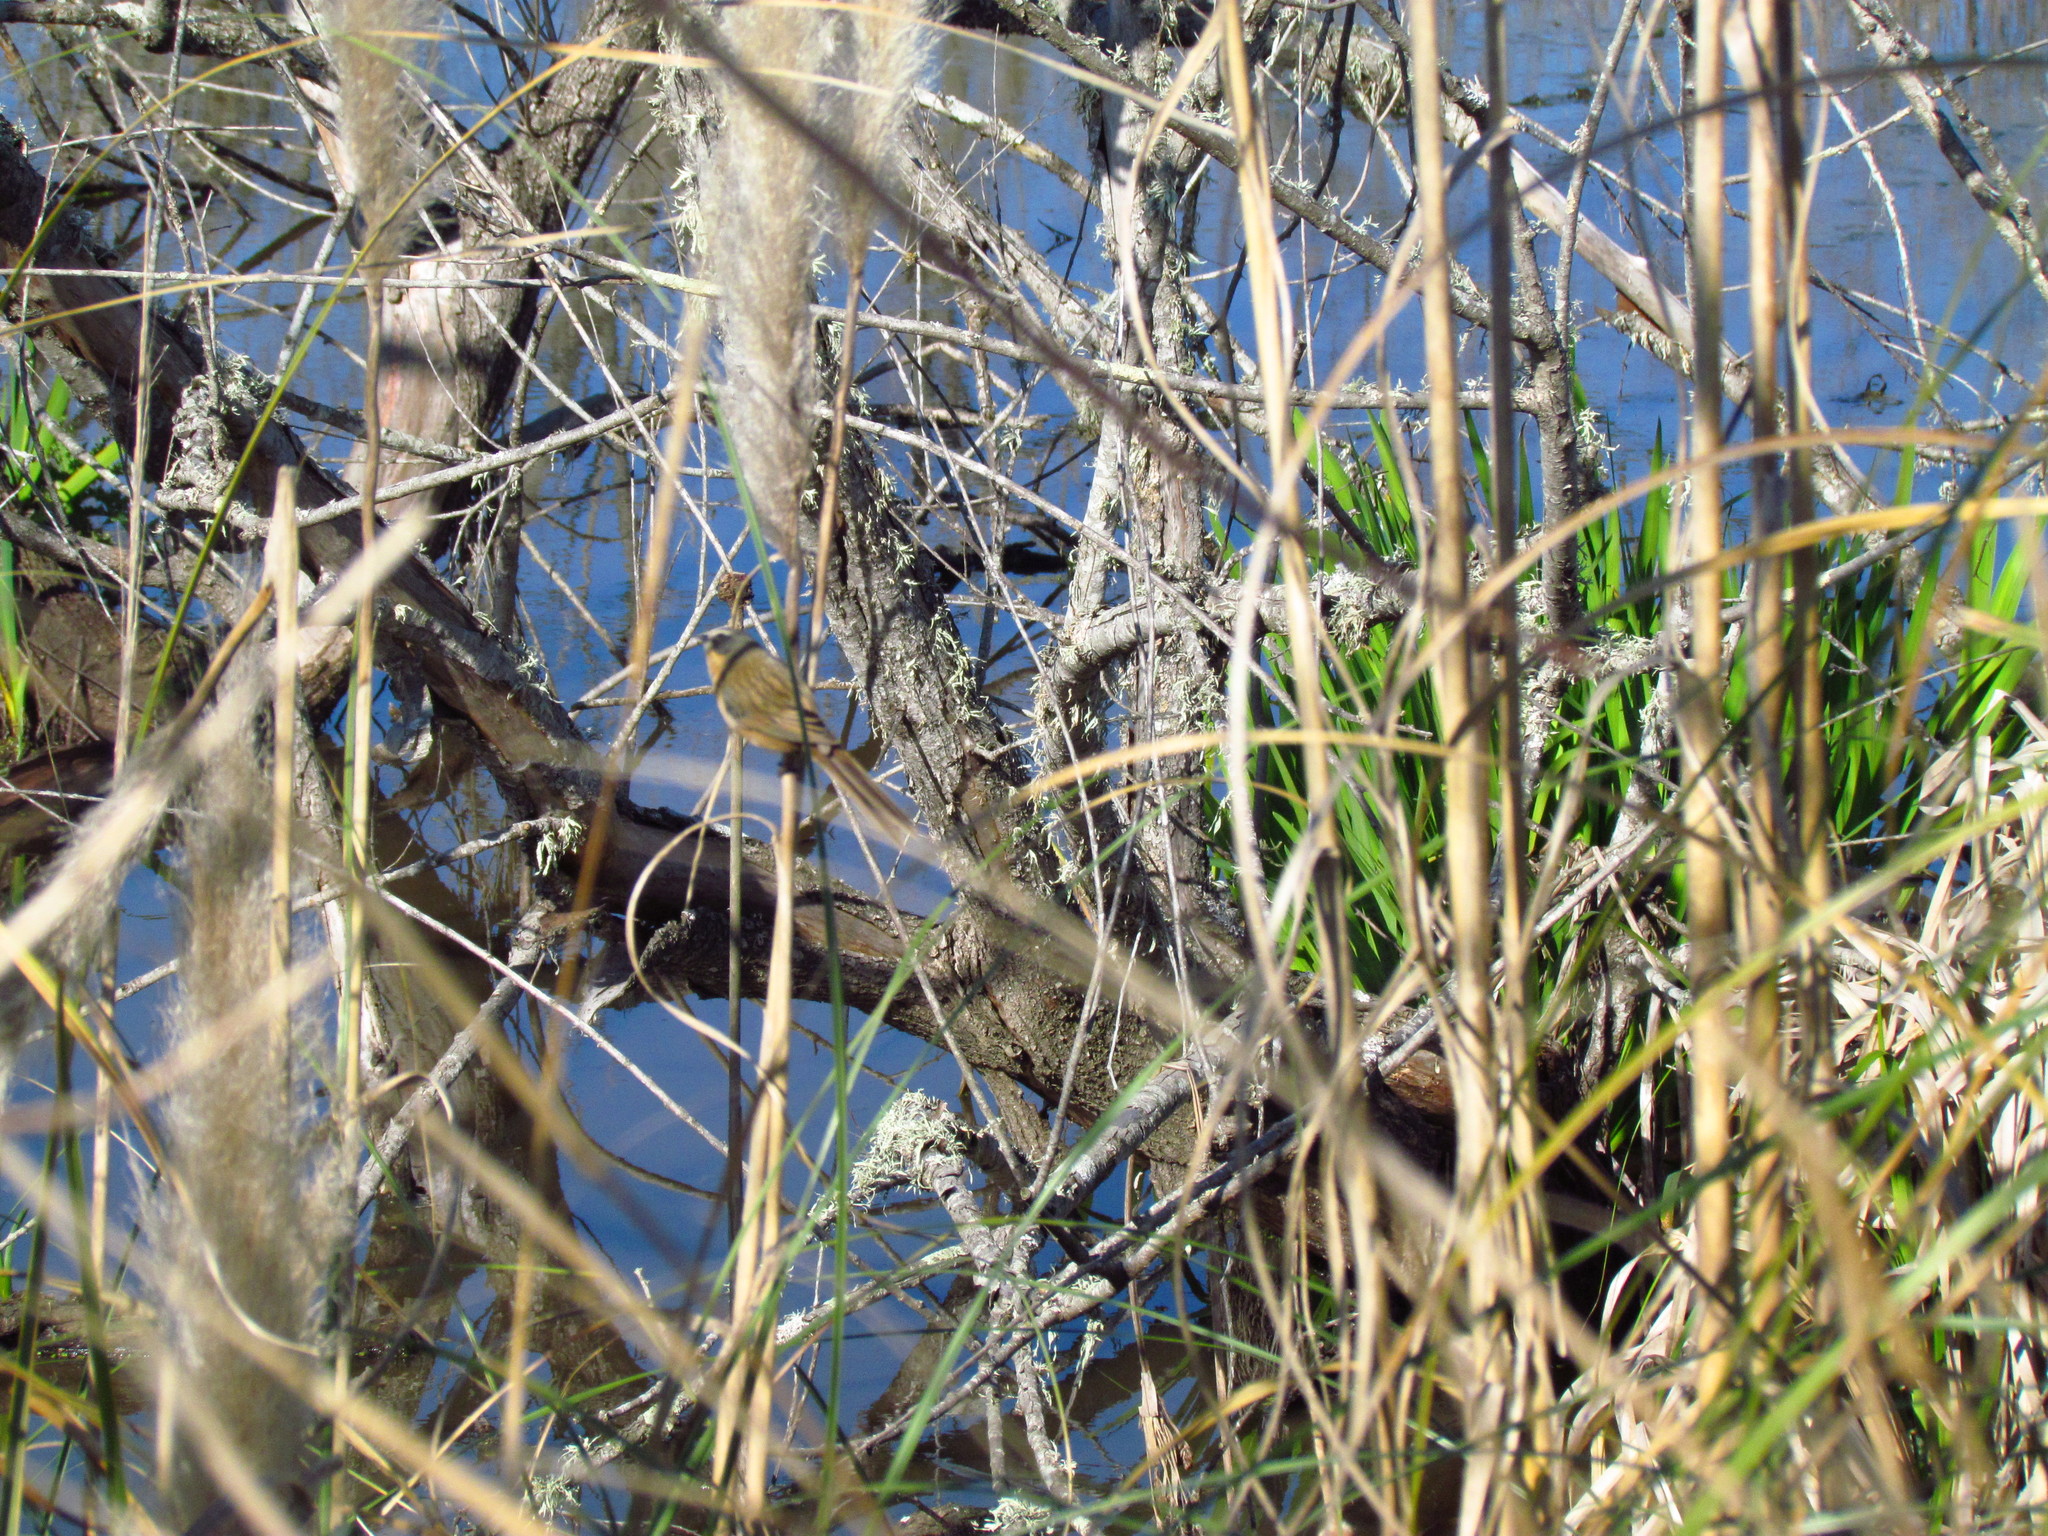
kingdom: Animalia
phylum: Chordata
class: Aves
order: Passeriformes
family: Thraupidae
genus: Donacospiza
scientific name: Donacospiza albifrons
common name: Long-tailed reed finch
